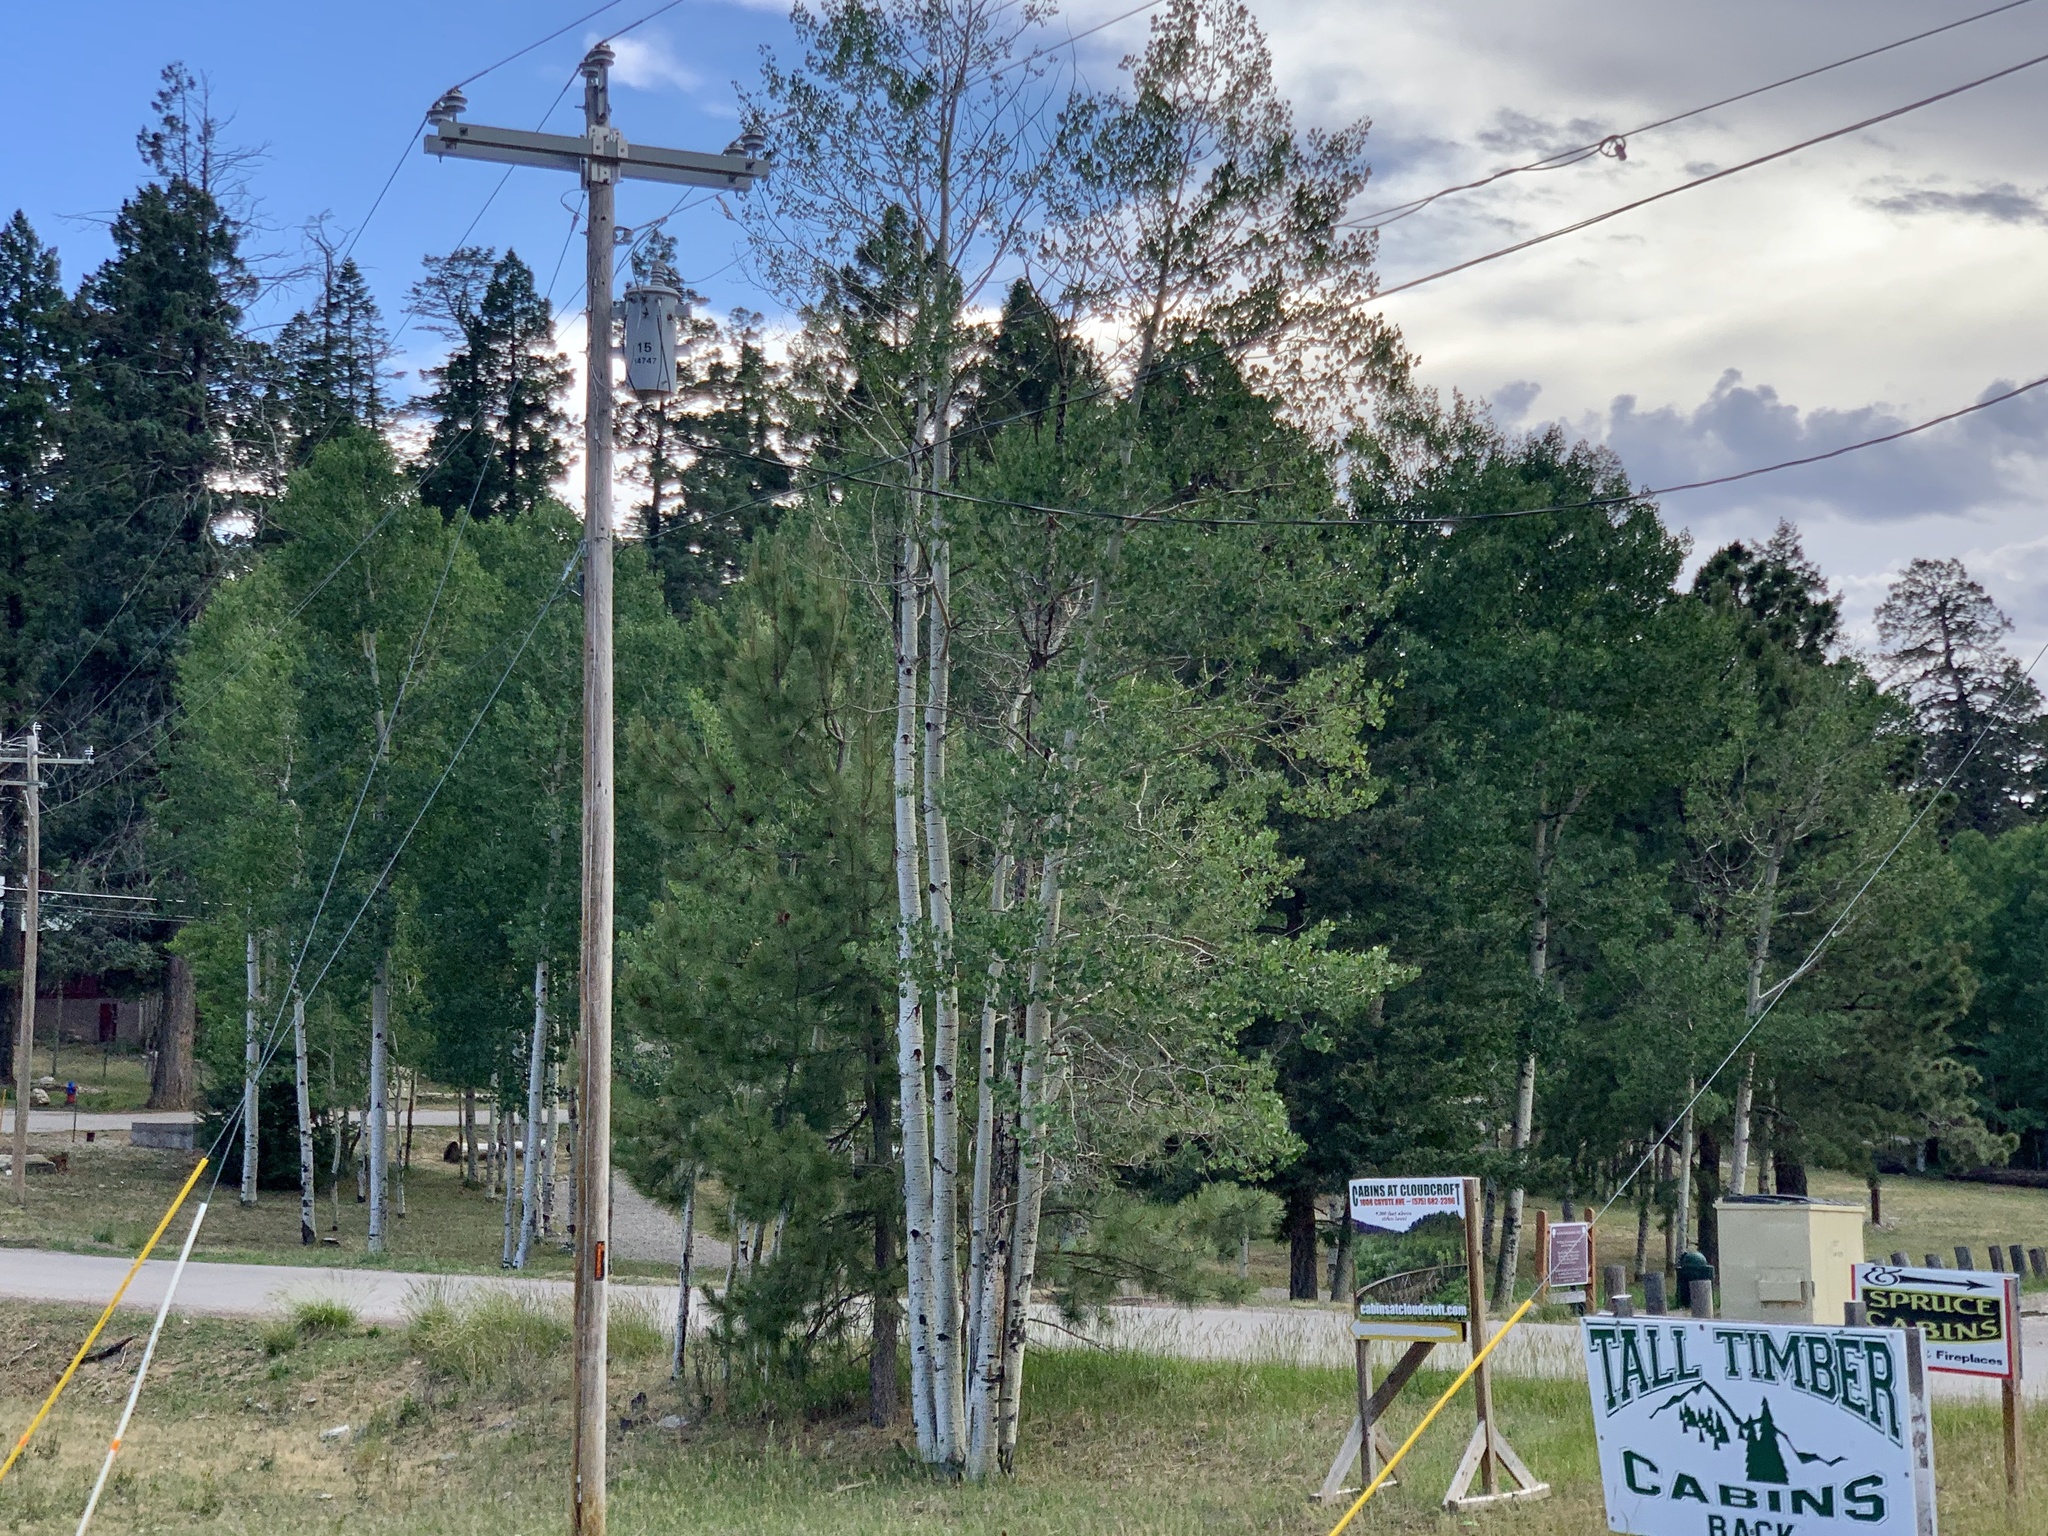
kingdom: Plantae
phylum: Tracheophyta
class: Magnoliopsida
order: Malpighiales
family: Salicaceae
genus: Populus
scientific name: Populus tremuloides
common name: Quaking aspen
